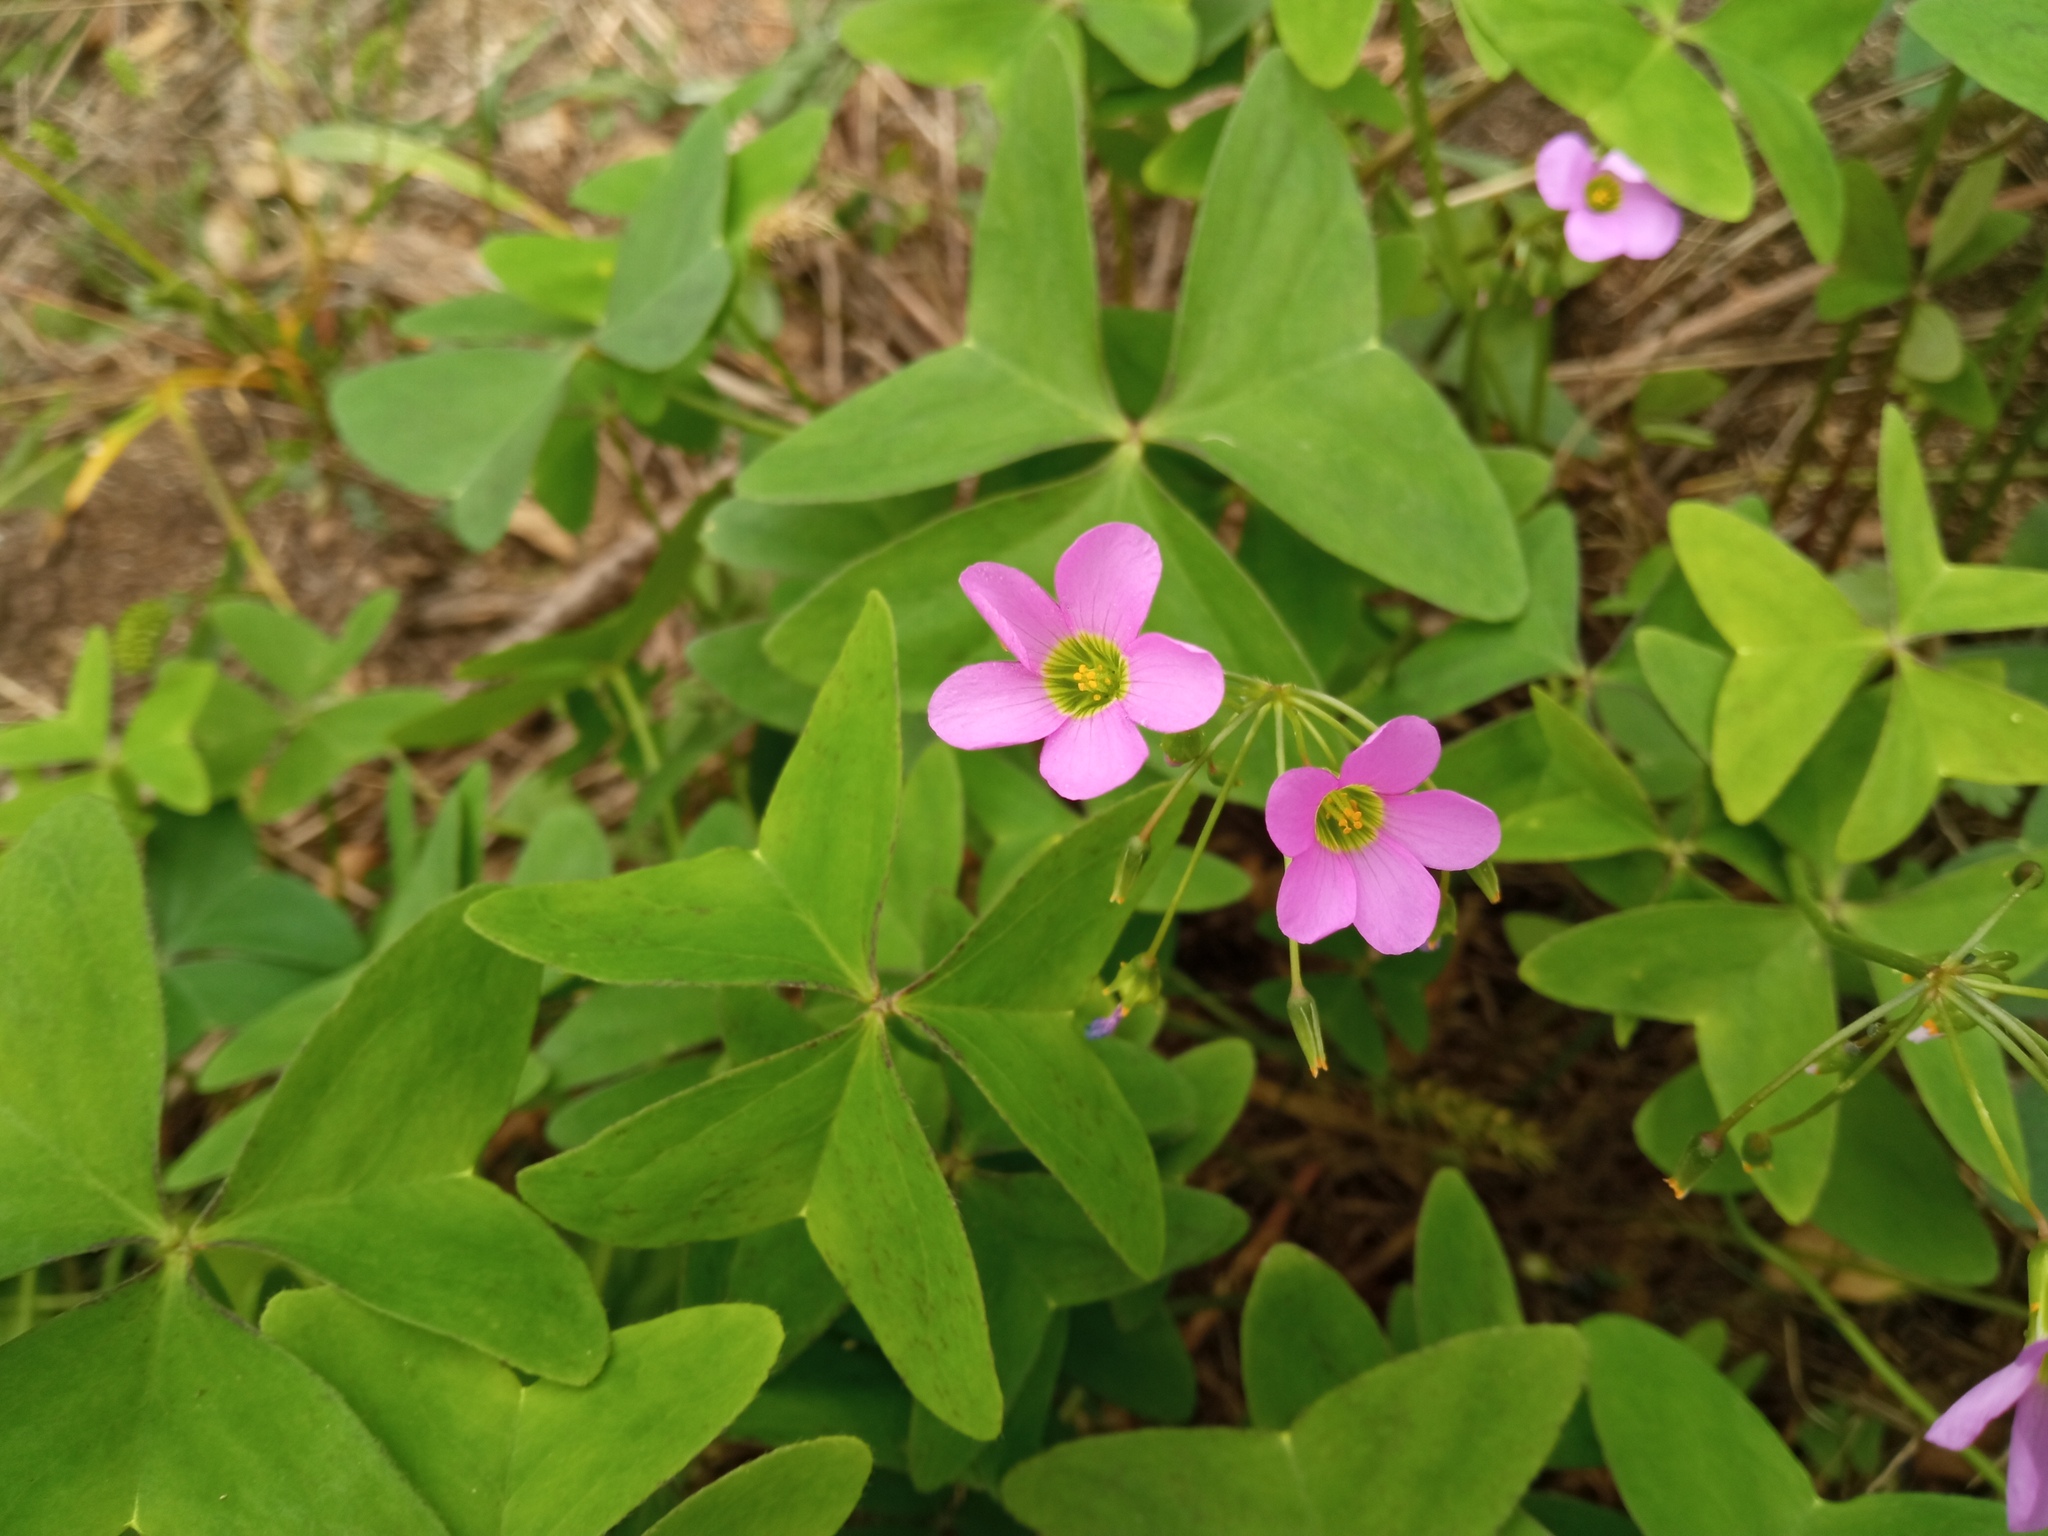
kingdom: Plantae
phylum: Tracheophyta
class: Magnoliopsida
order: Oxalidales
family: Oxalidaceae
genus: Oxalis
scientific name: Oxalis latifolia
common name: Garden pink-sorrel
